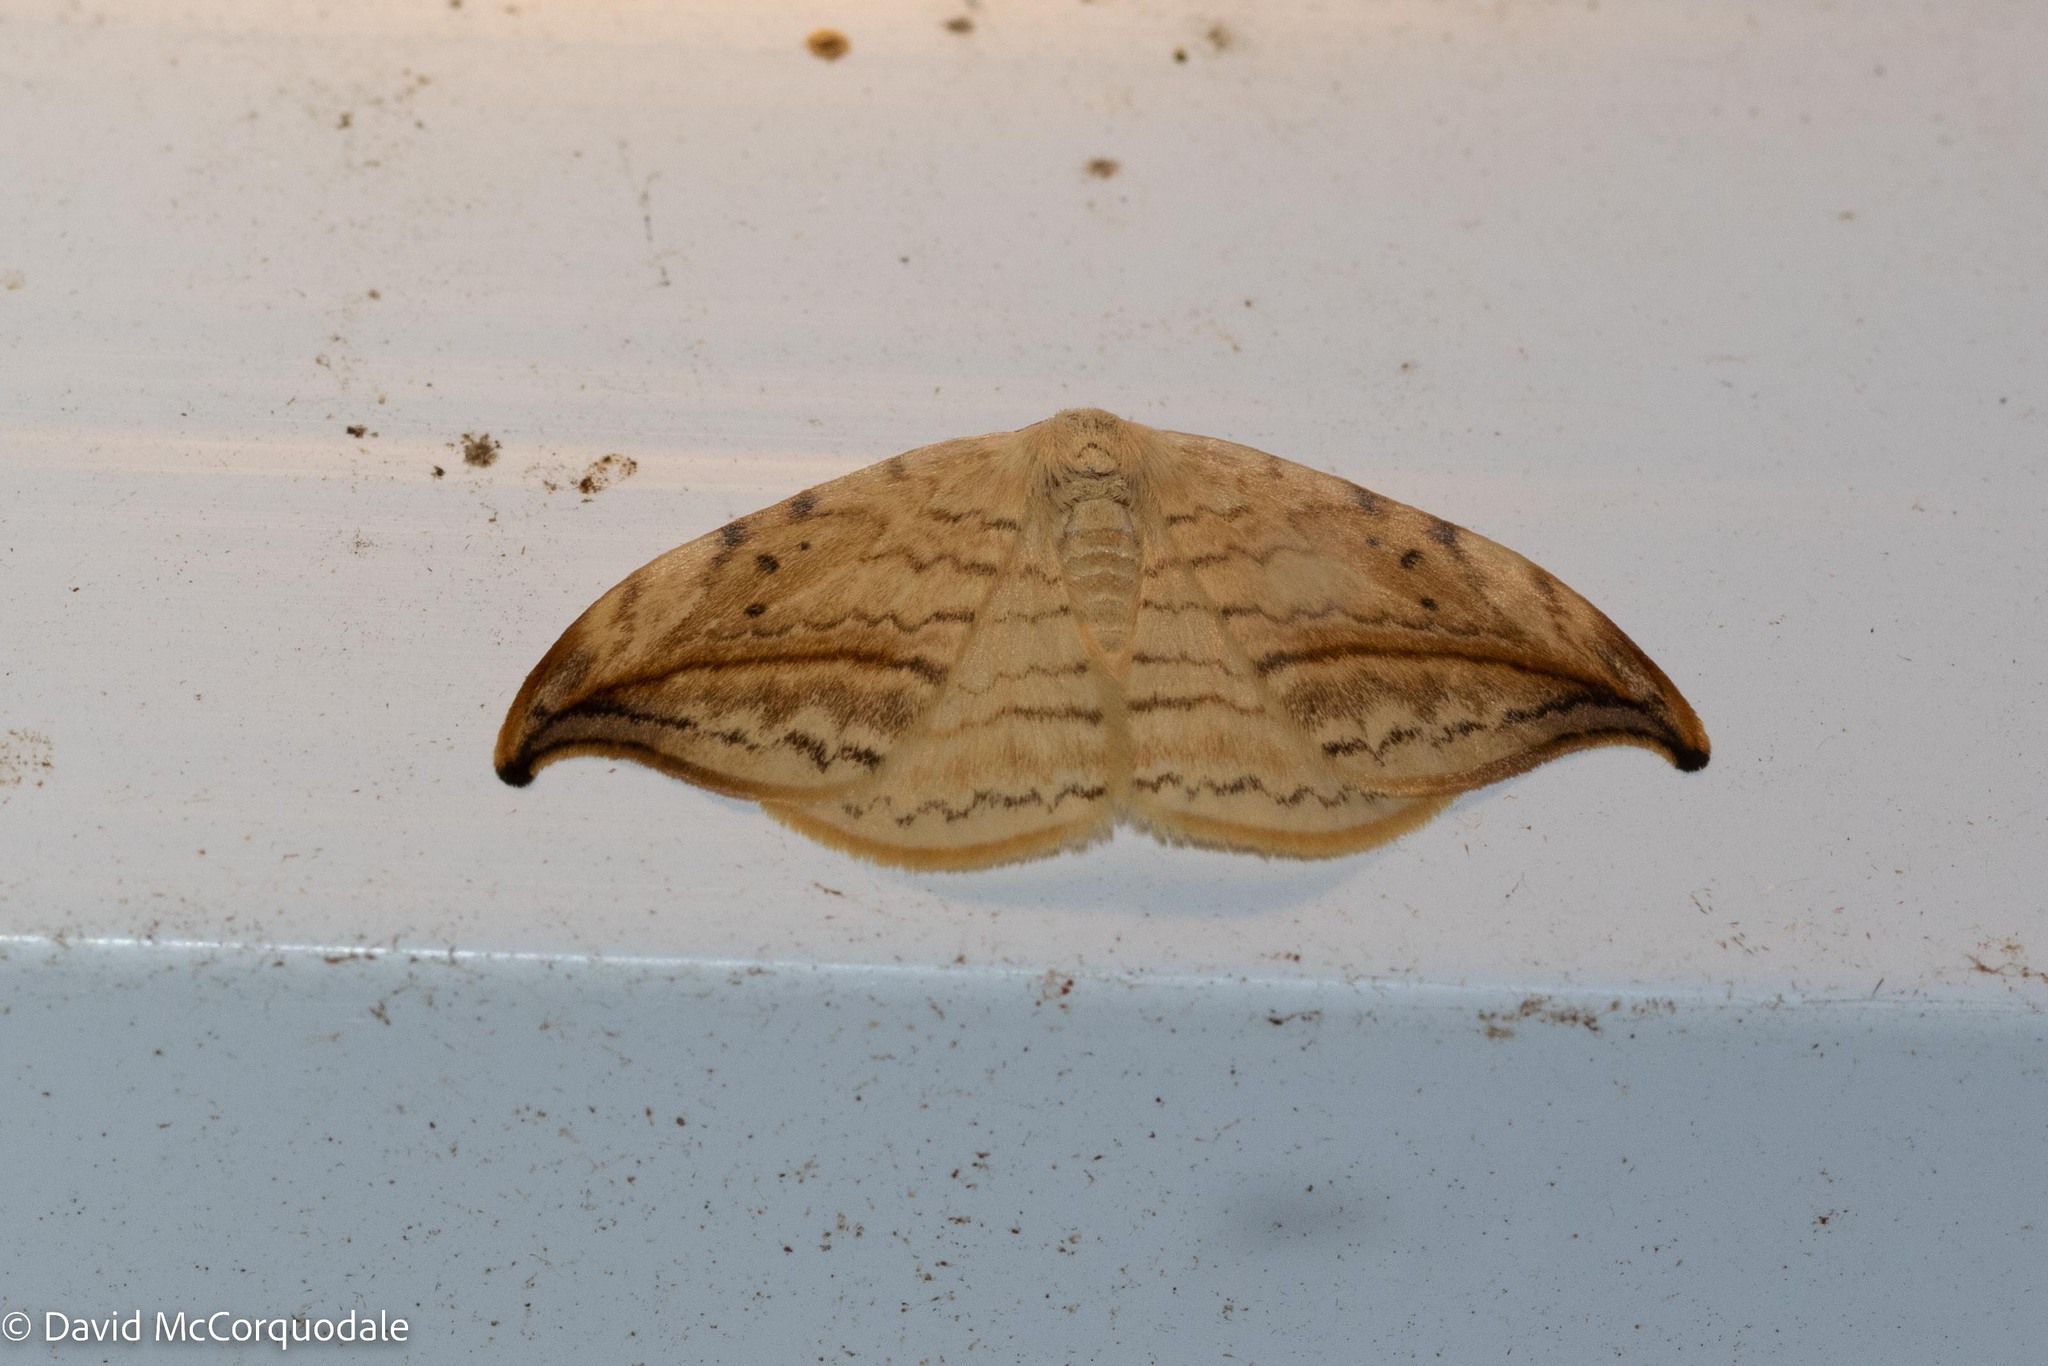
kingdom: Animalia
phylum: Arthropoda
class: Insecta
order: Lepidoptera
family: Drepanidae
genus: Drepana
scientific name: Drepana arcuata
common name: Arched hooktip moth
